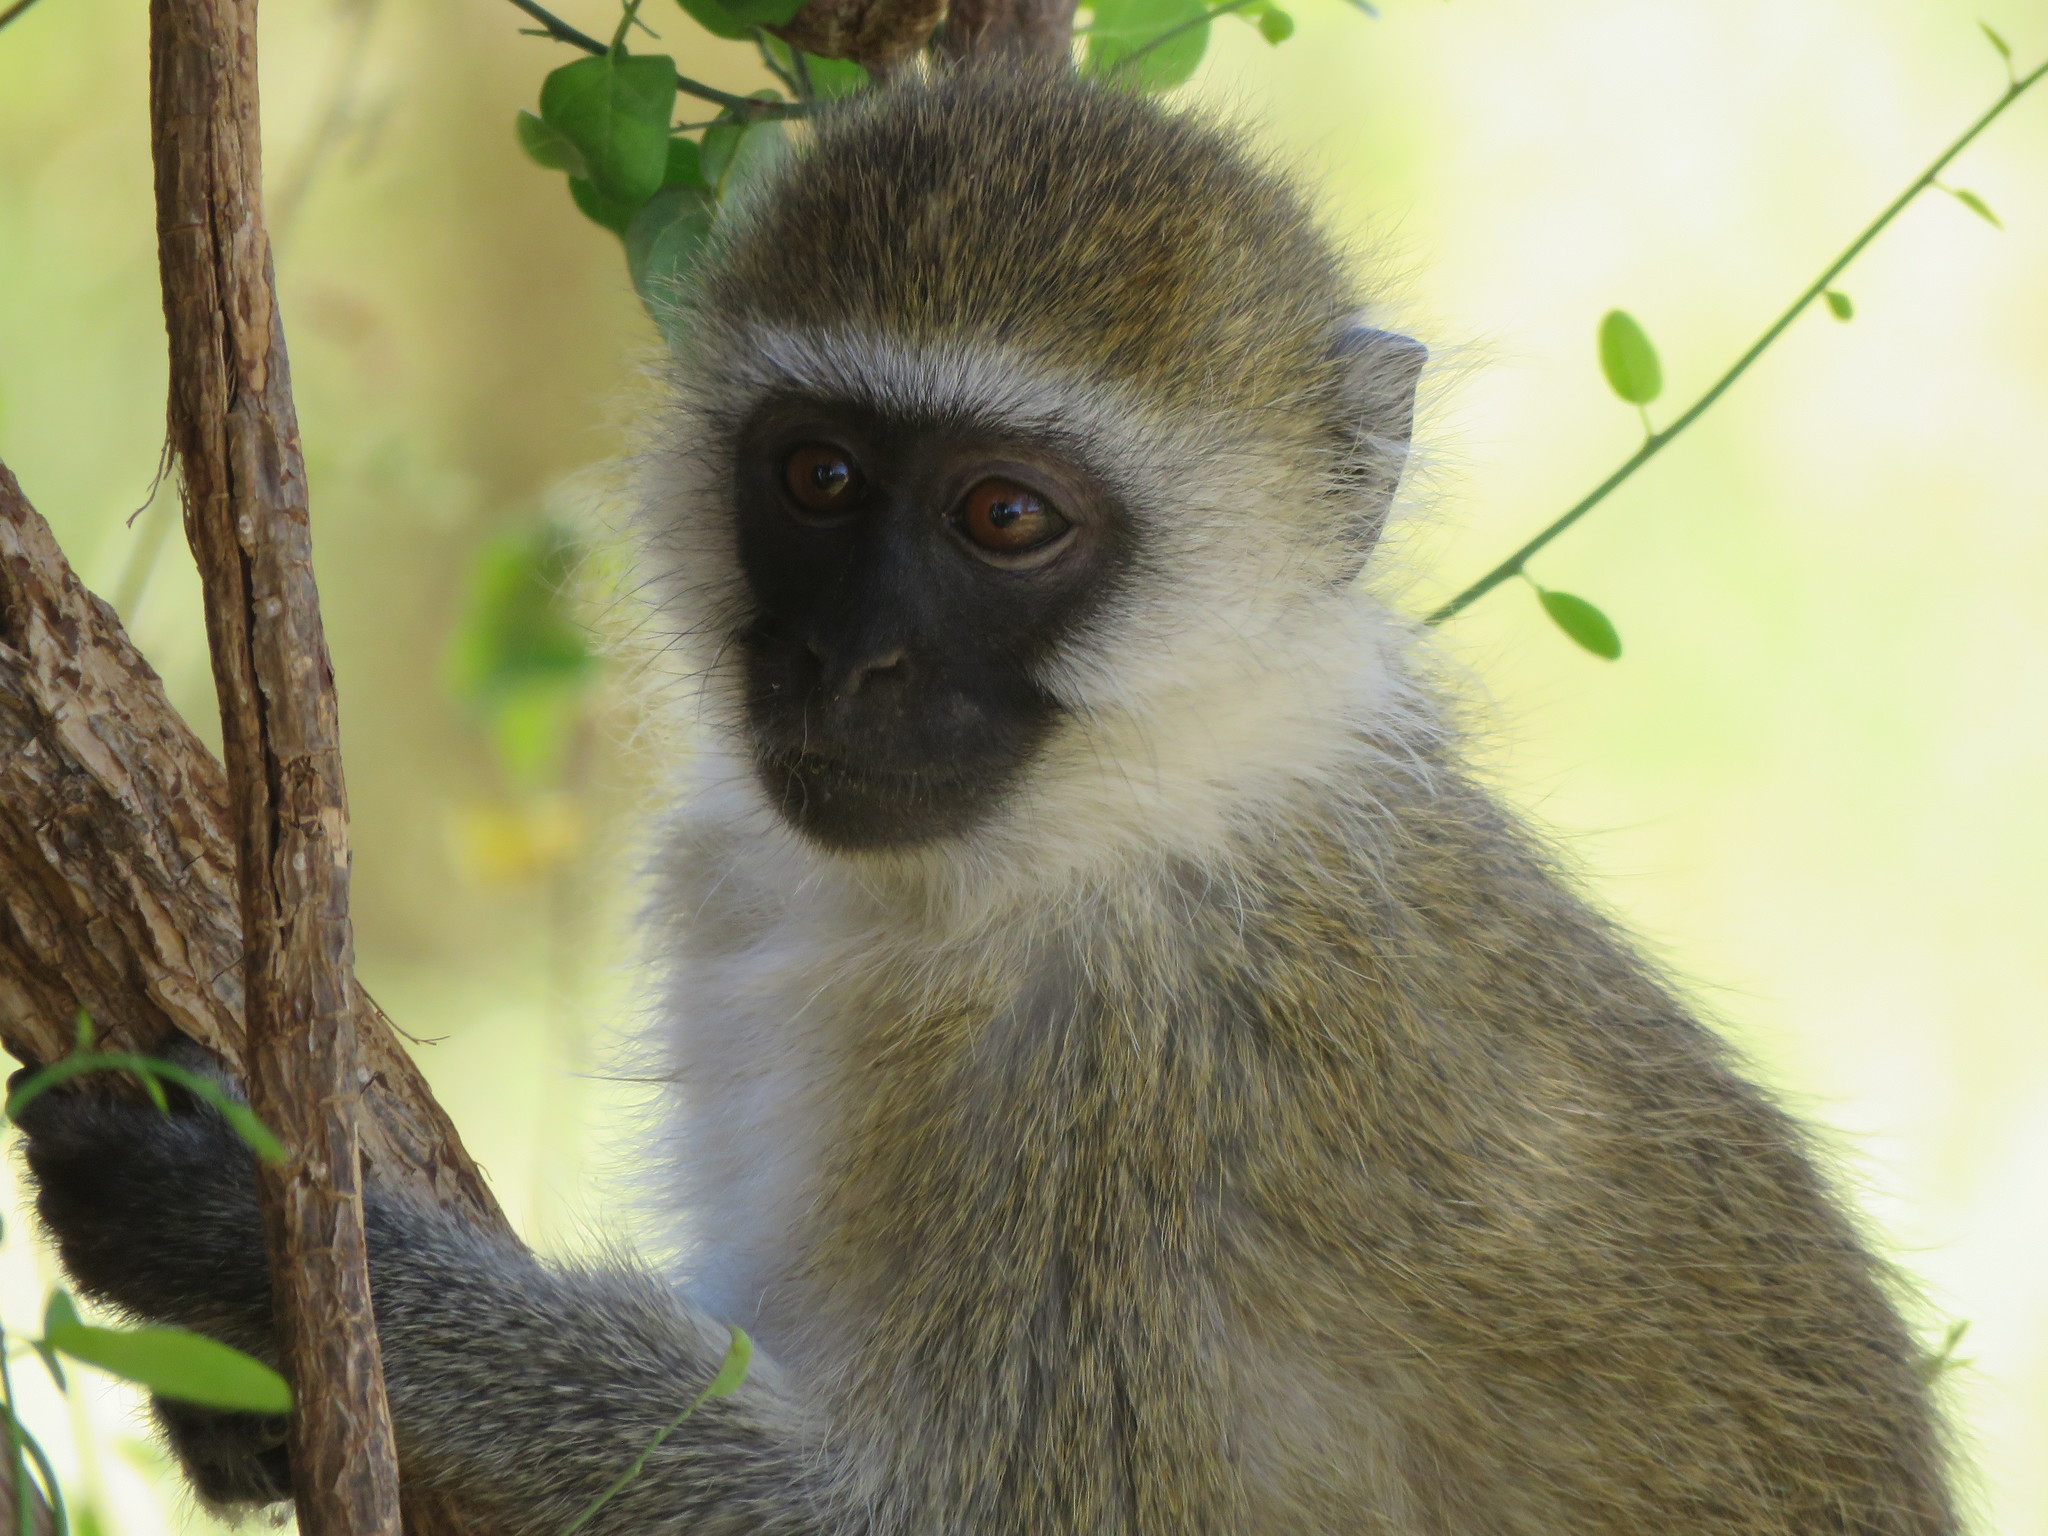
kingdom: Animalia
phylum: Chordata
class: Mammalia
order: Primates
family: Cercopithecidae
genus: Chlorocebus
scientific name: Chlorocebus pygerythrus
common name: Vervet monkey
